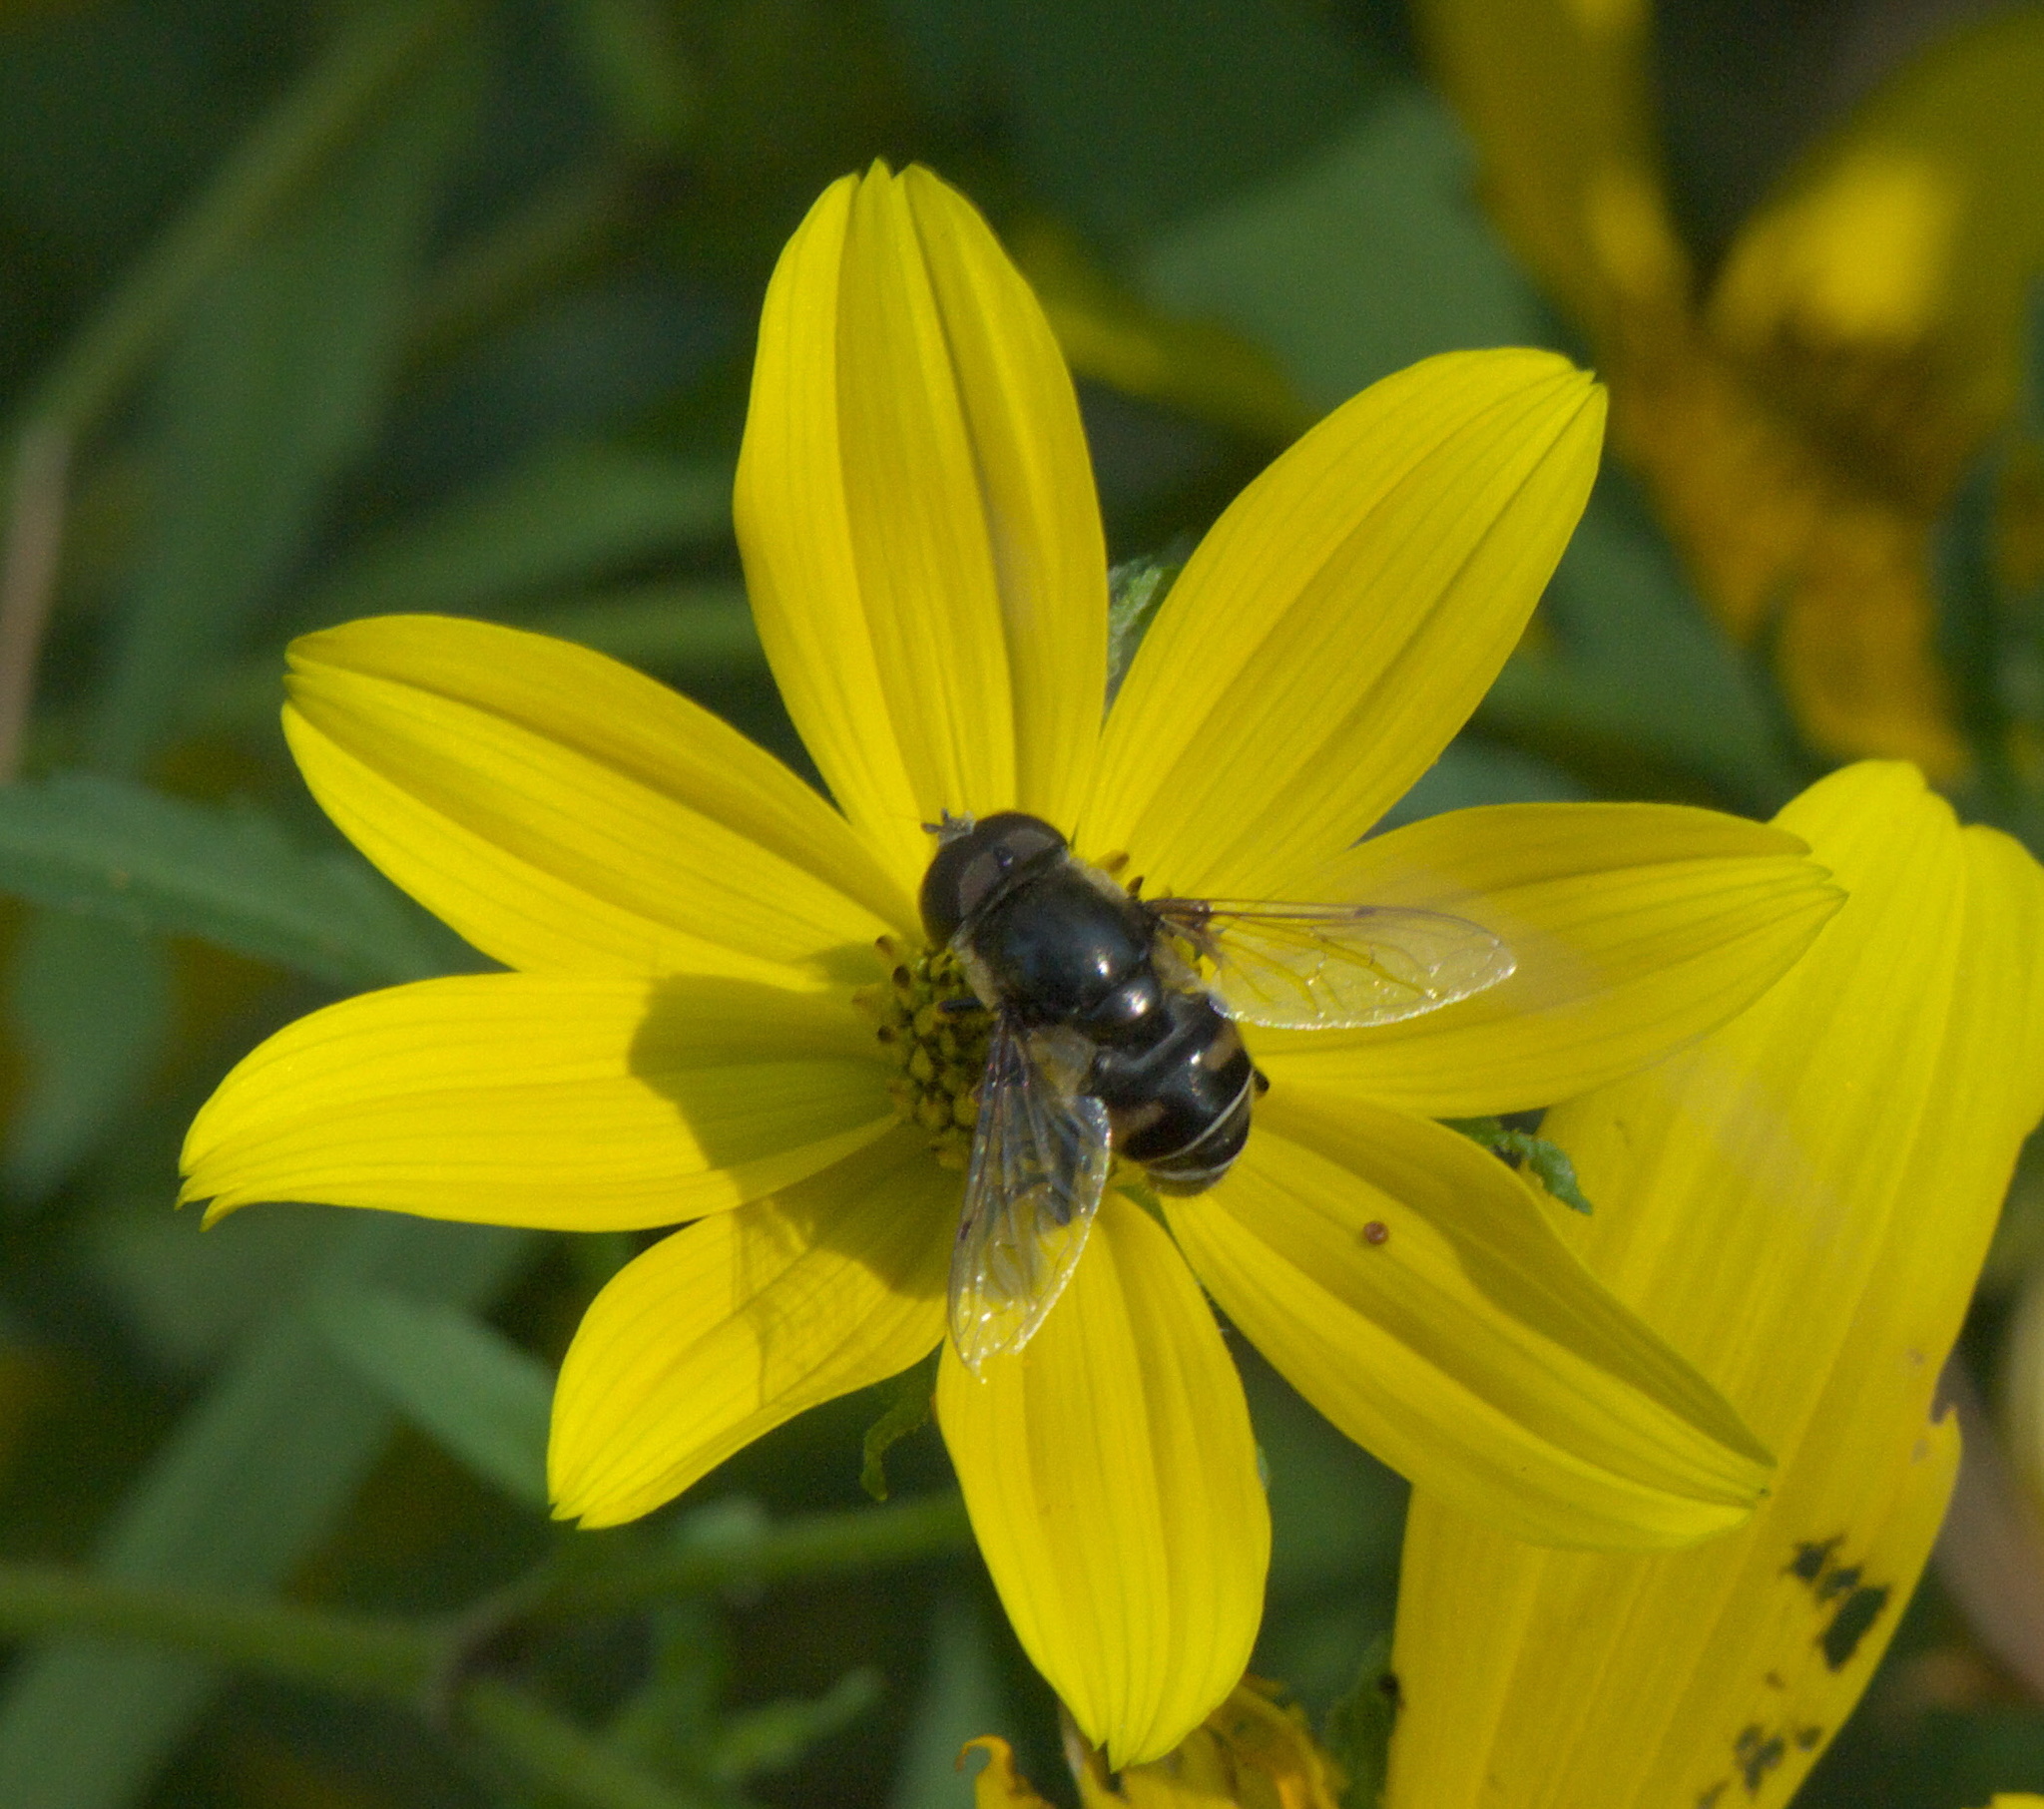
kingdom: Animalia
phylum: Arthropoda
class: Insecta
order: Diptera
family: Syrphidae
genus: Eristalis
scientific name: Eristalis dimidiata
